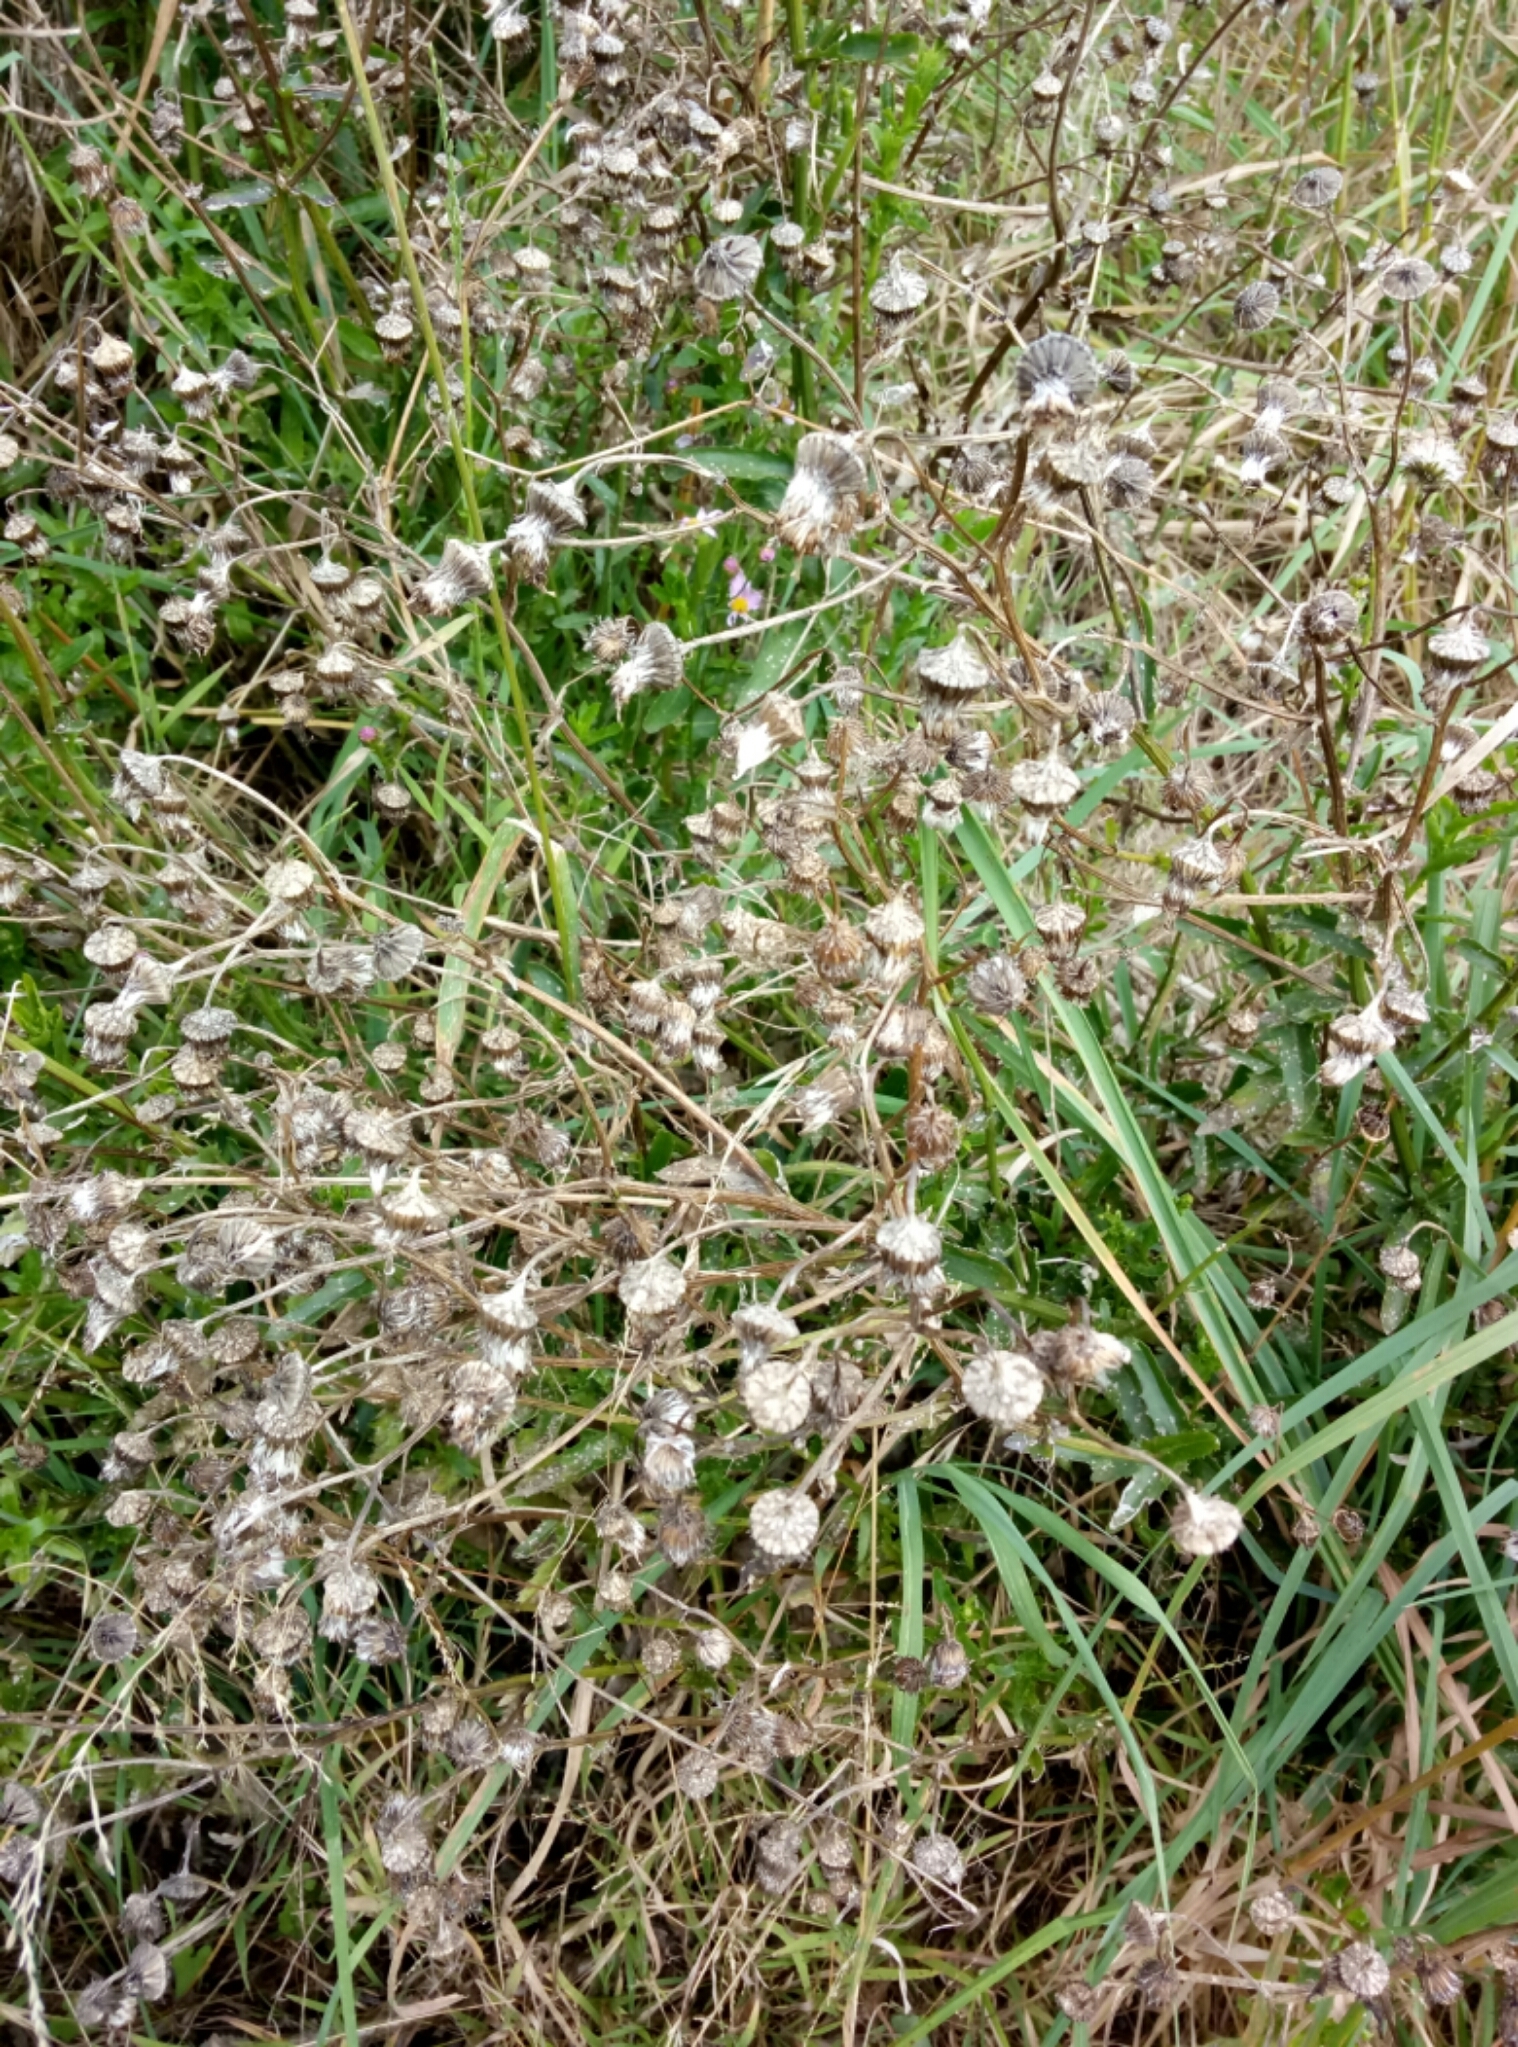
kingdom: Plantae
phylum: Tracheophyta
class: Magnoliopsida
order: Asterales
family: Asteraceae
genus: Senecio
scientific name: Senecio glastifolius
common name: Woad-leaved ragwort
